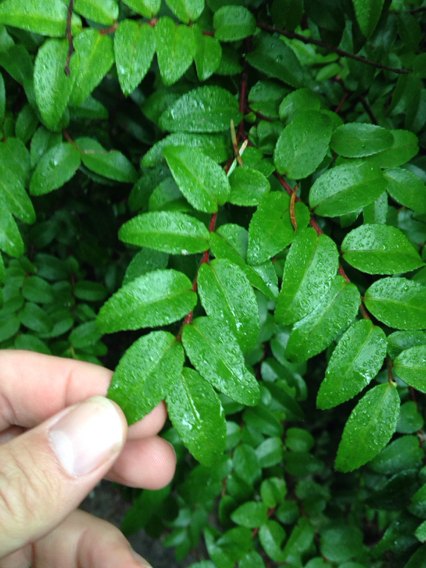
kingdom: Plantae
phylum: Tracheophyta
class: Magnoliopsida
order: Ericales
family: Ericaceae
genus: Vaccinium
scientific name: Vaccinium ovatum
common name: California-huckleberry
